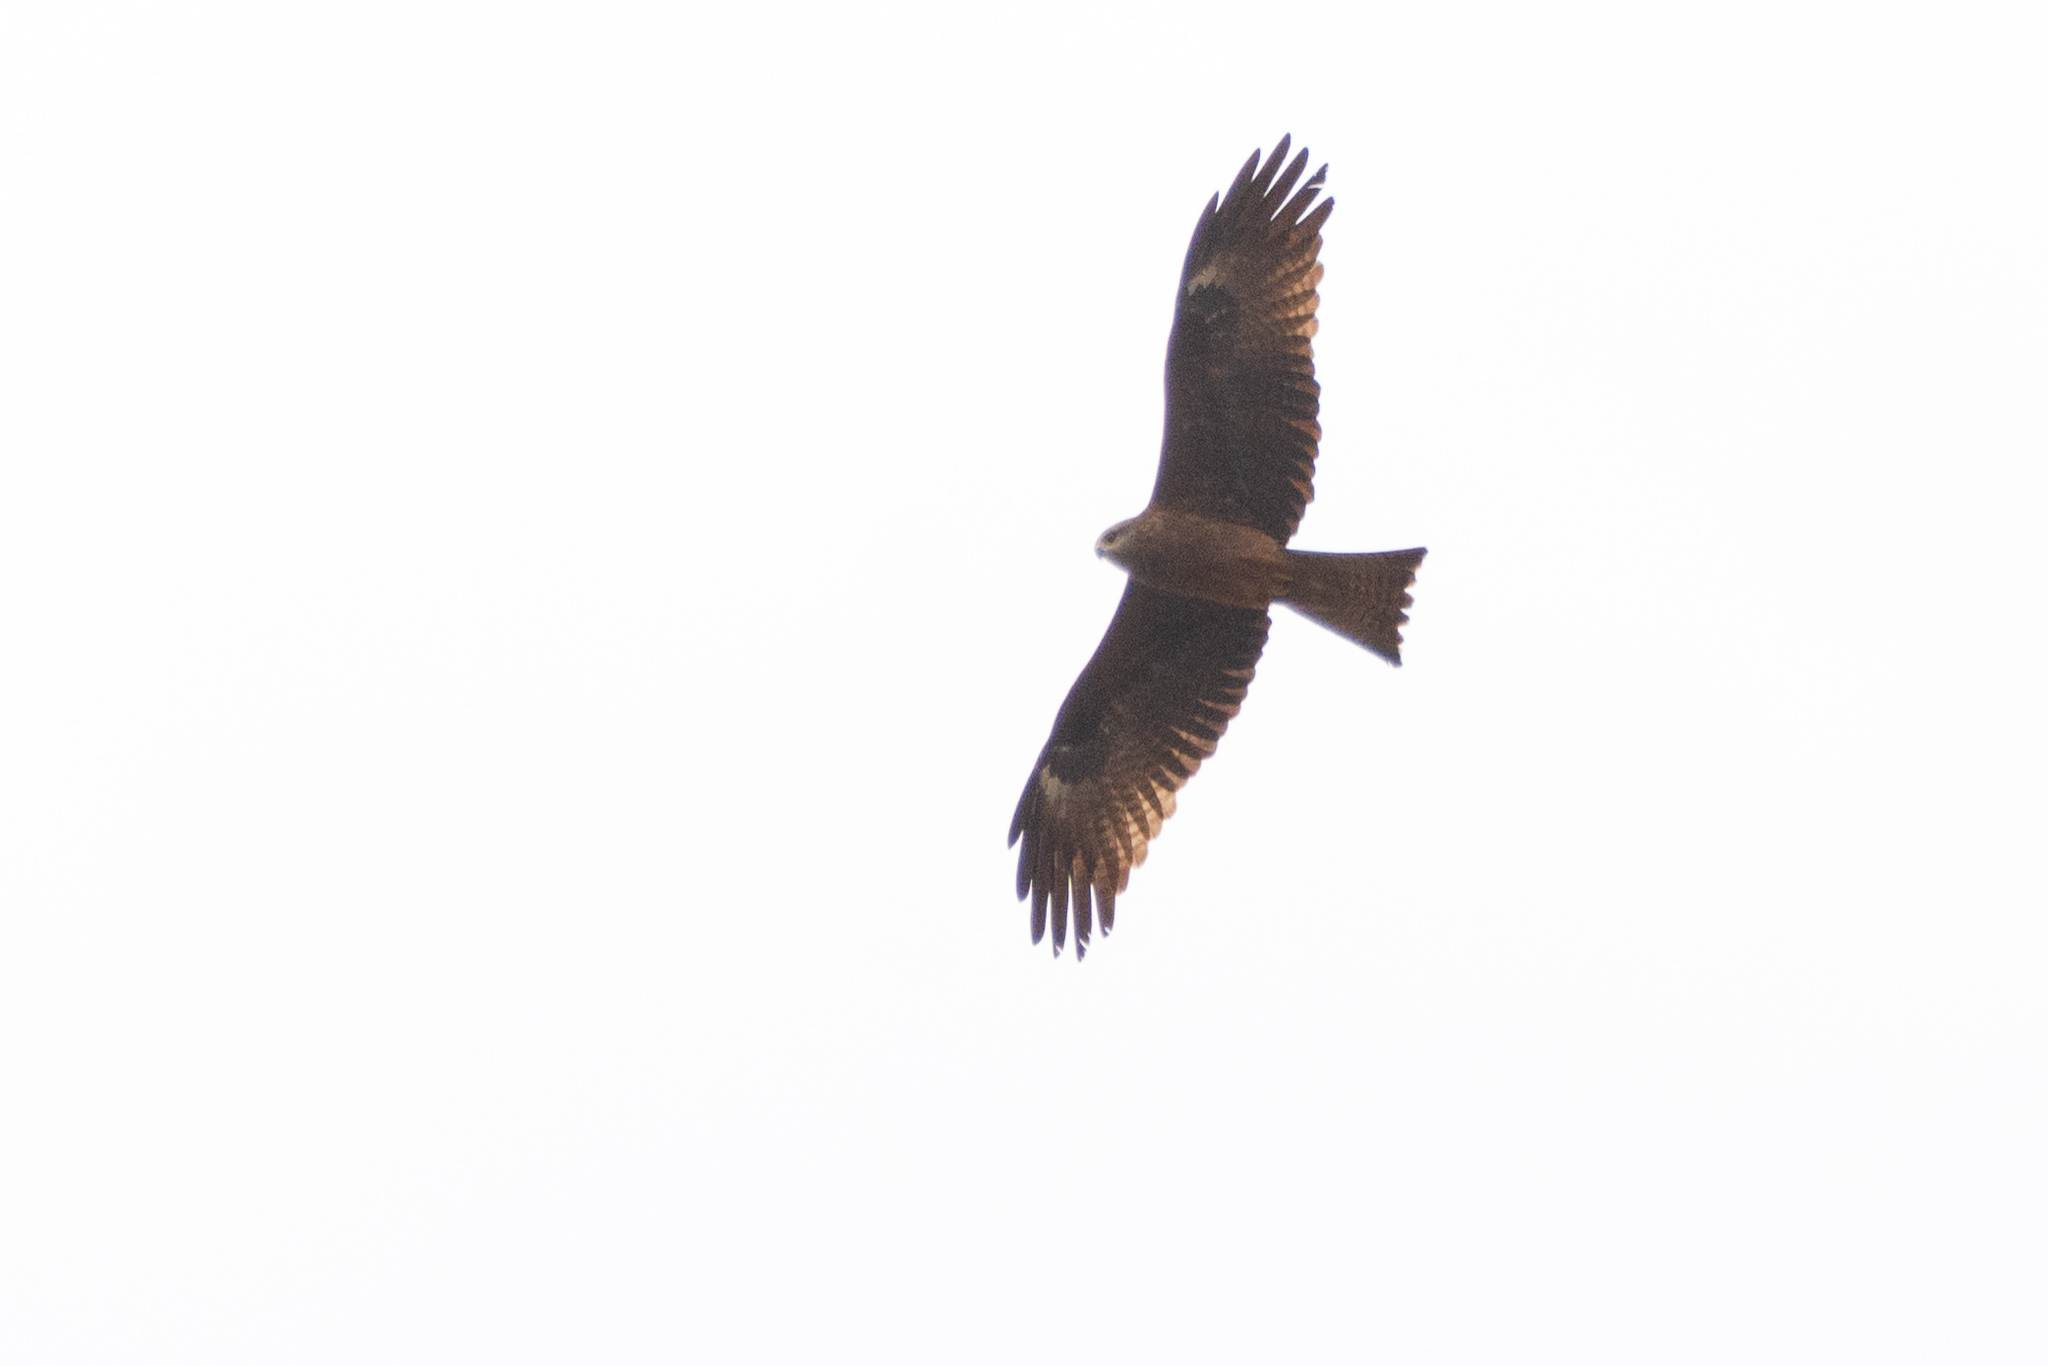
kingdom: Animalia
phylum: Chordata
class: Aves
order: Accipitriformes
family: Accipitridae
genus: Milvus
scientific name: Milvus migrans
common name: Black kite
